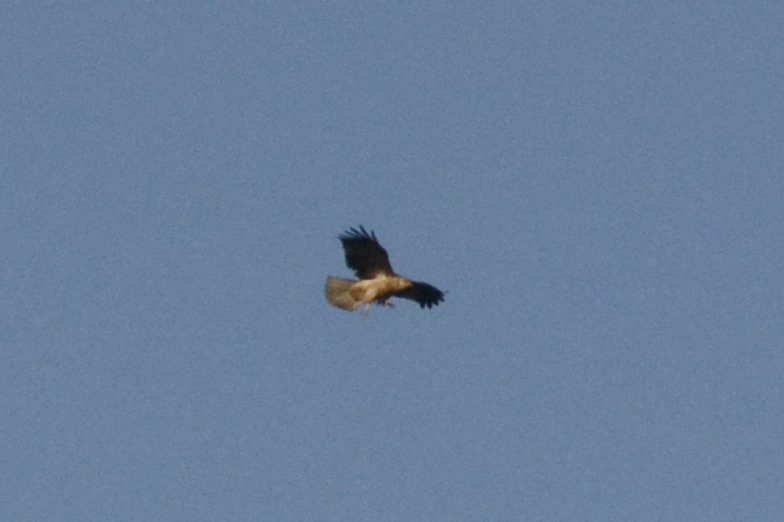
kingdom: Animalia
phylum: Chordata
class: Aves
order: Accipitriformes
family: Accipitridae
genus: Haliastur
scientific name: Haliastur sphenurus
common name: Whistling kite
